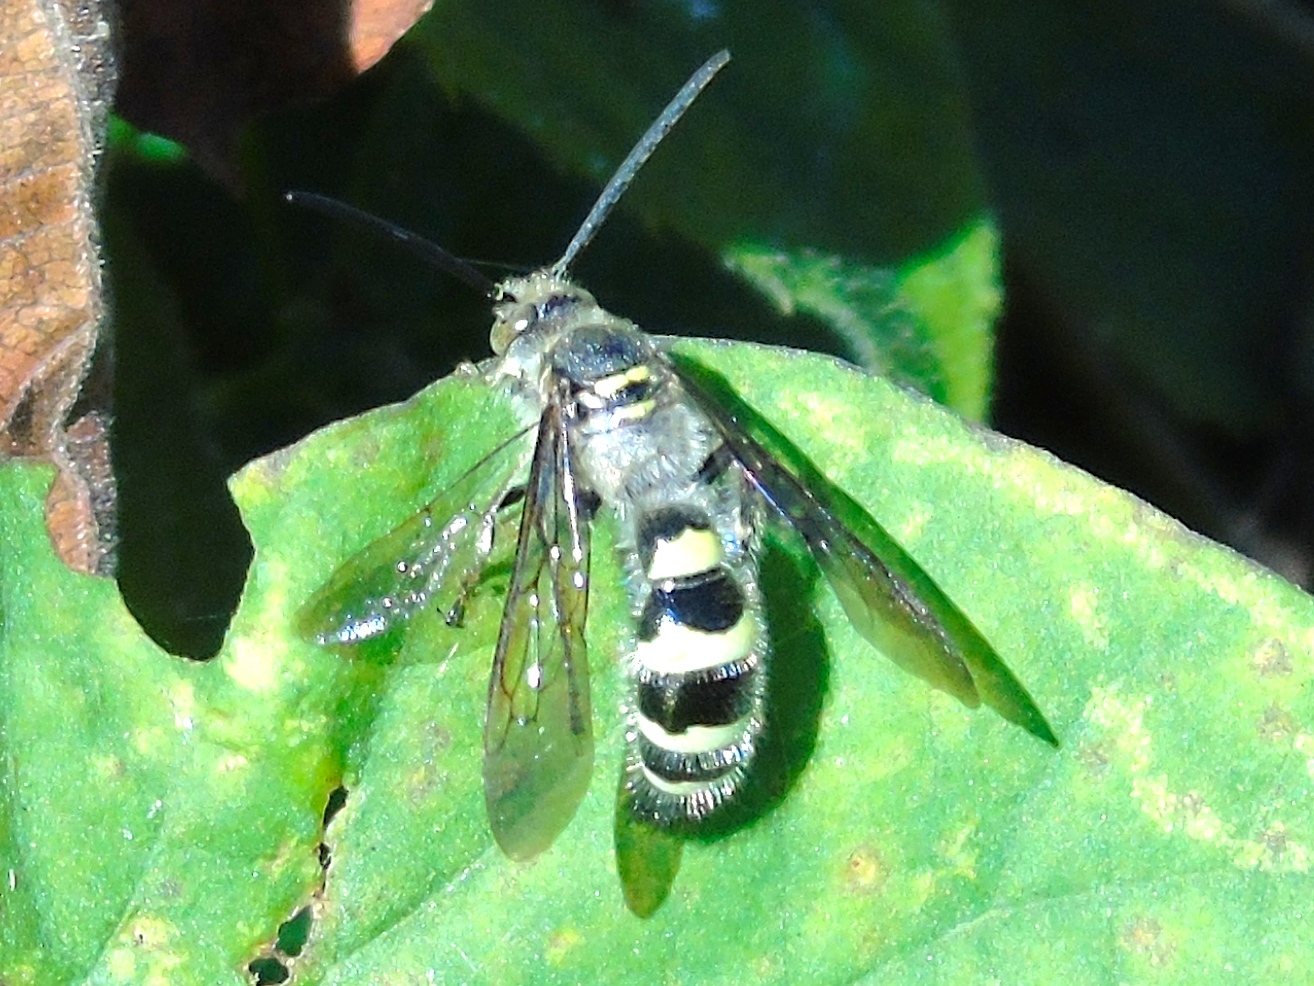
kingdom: Animalia
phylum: Arthropoda
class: Insecta
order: Hymenoptera
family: Scoliidae
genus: Dielis
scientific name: Dielis tolteca
